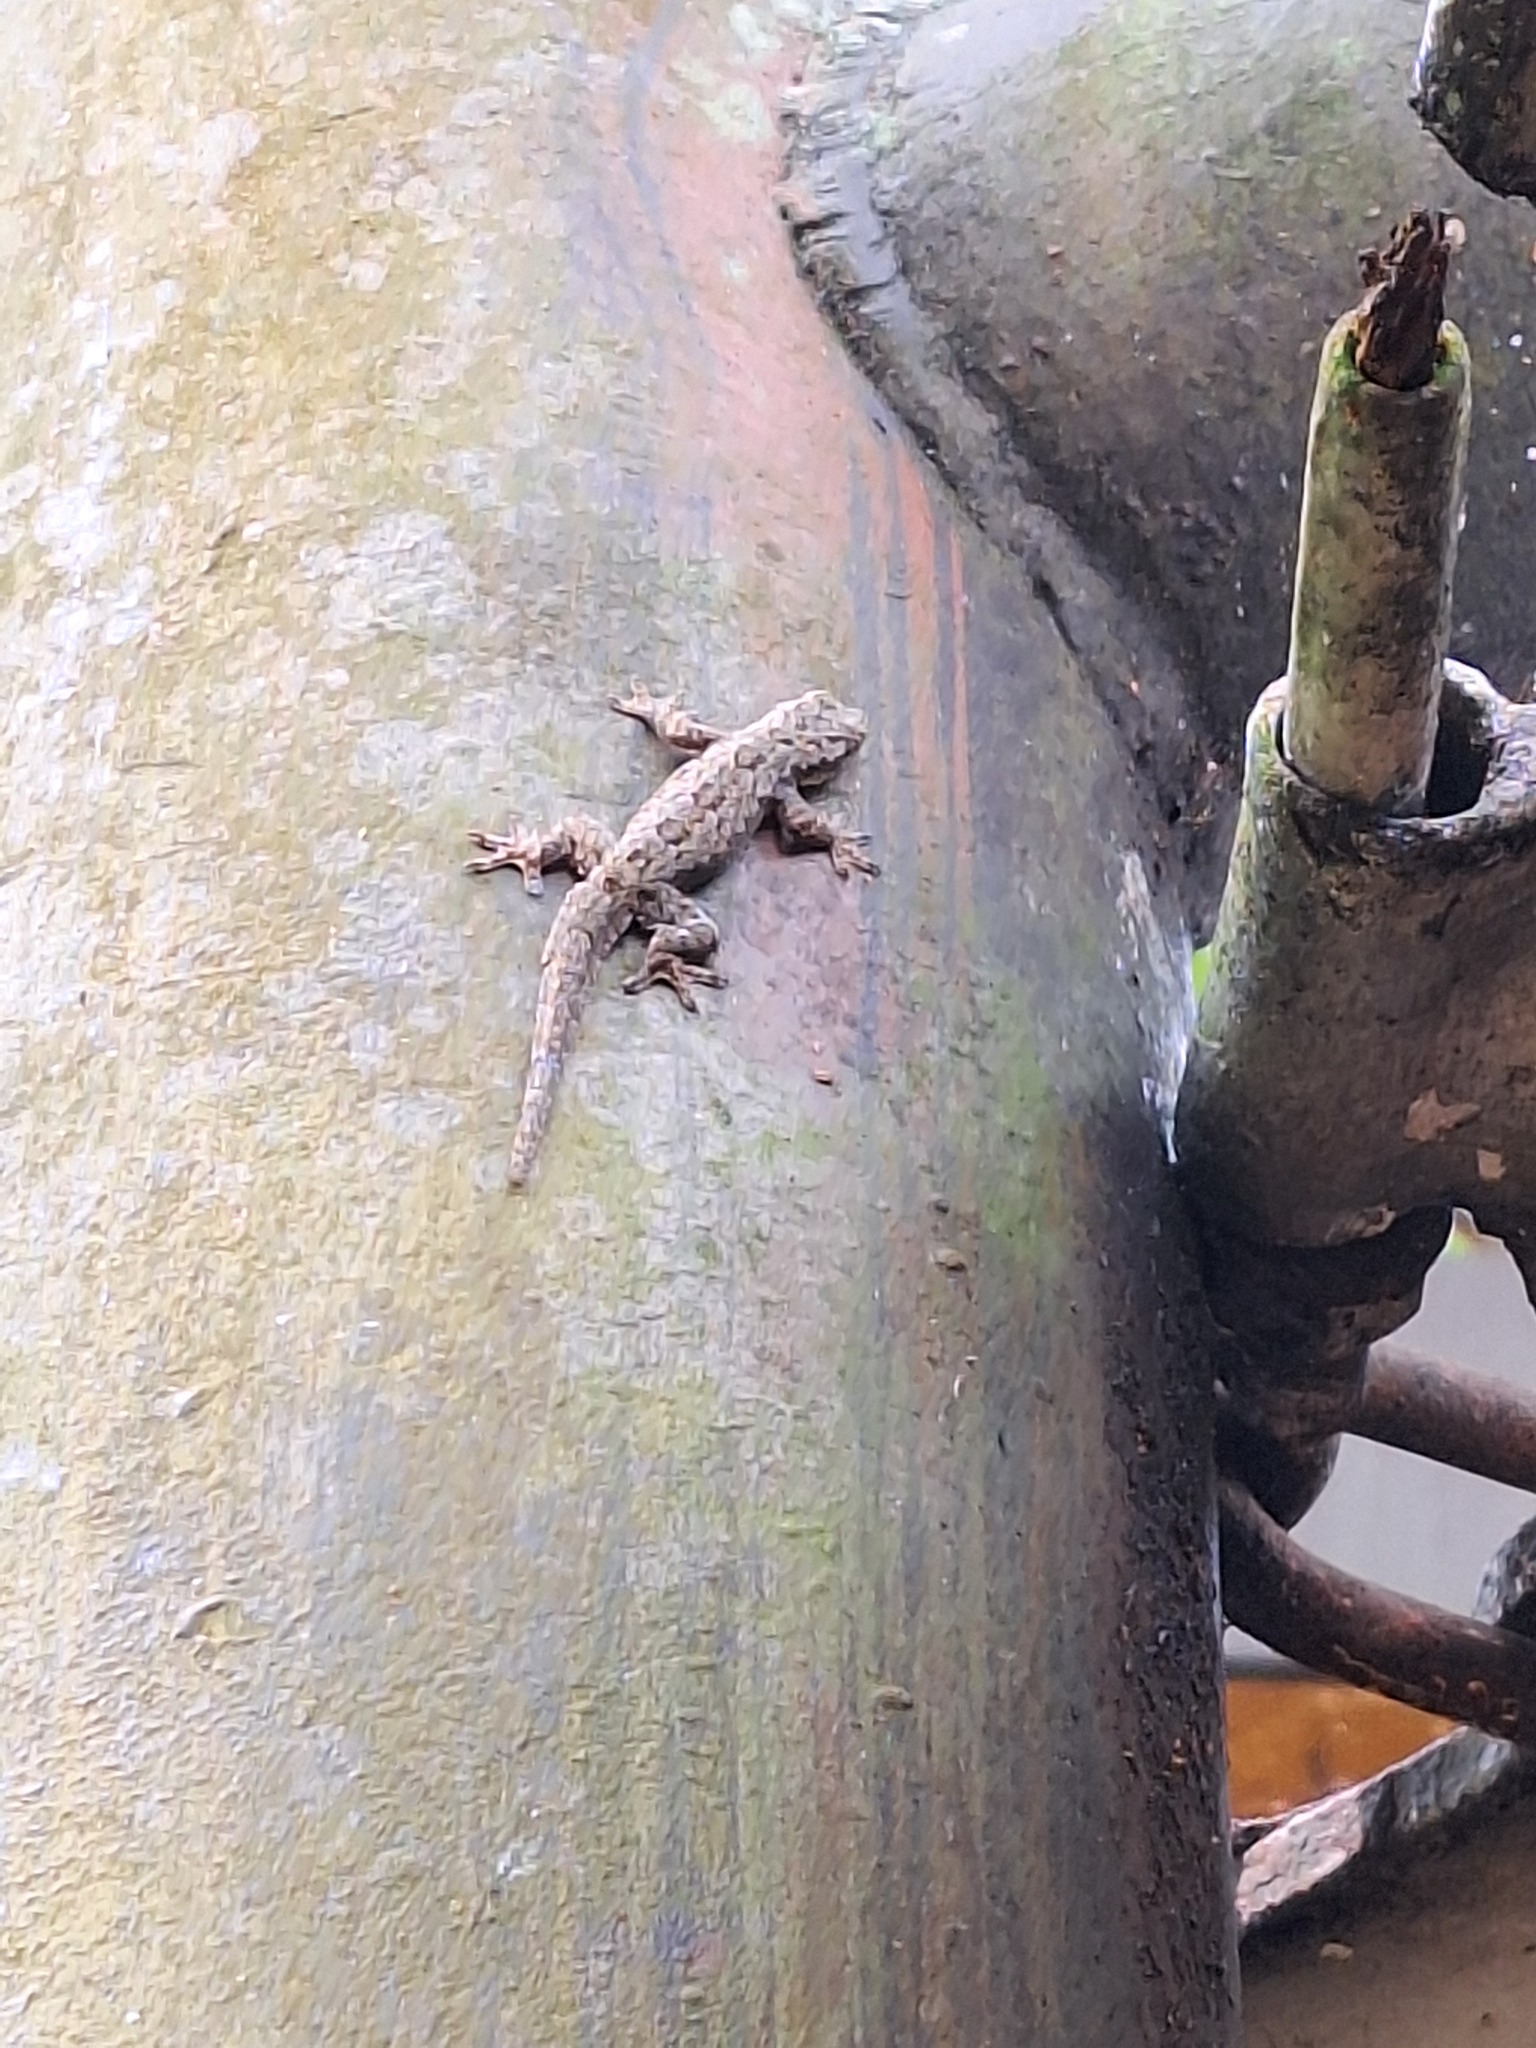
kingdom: Animalia
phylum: Chordata
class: Squamata
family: Gekkonidae
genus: Hemidactylus
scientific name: Hemidactylus platyurus
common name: Flat-tailed house gecko
